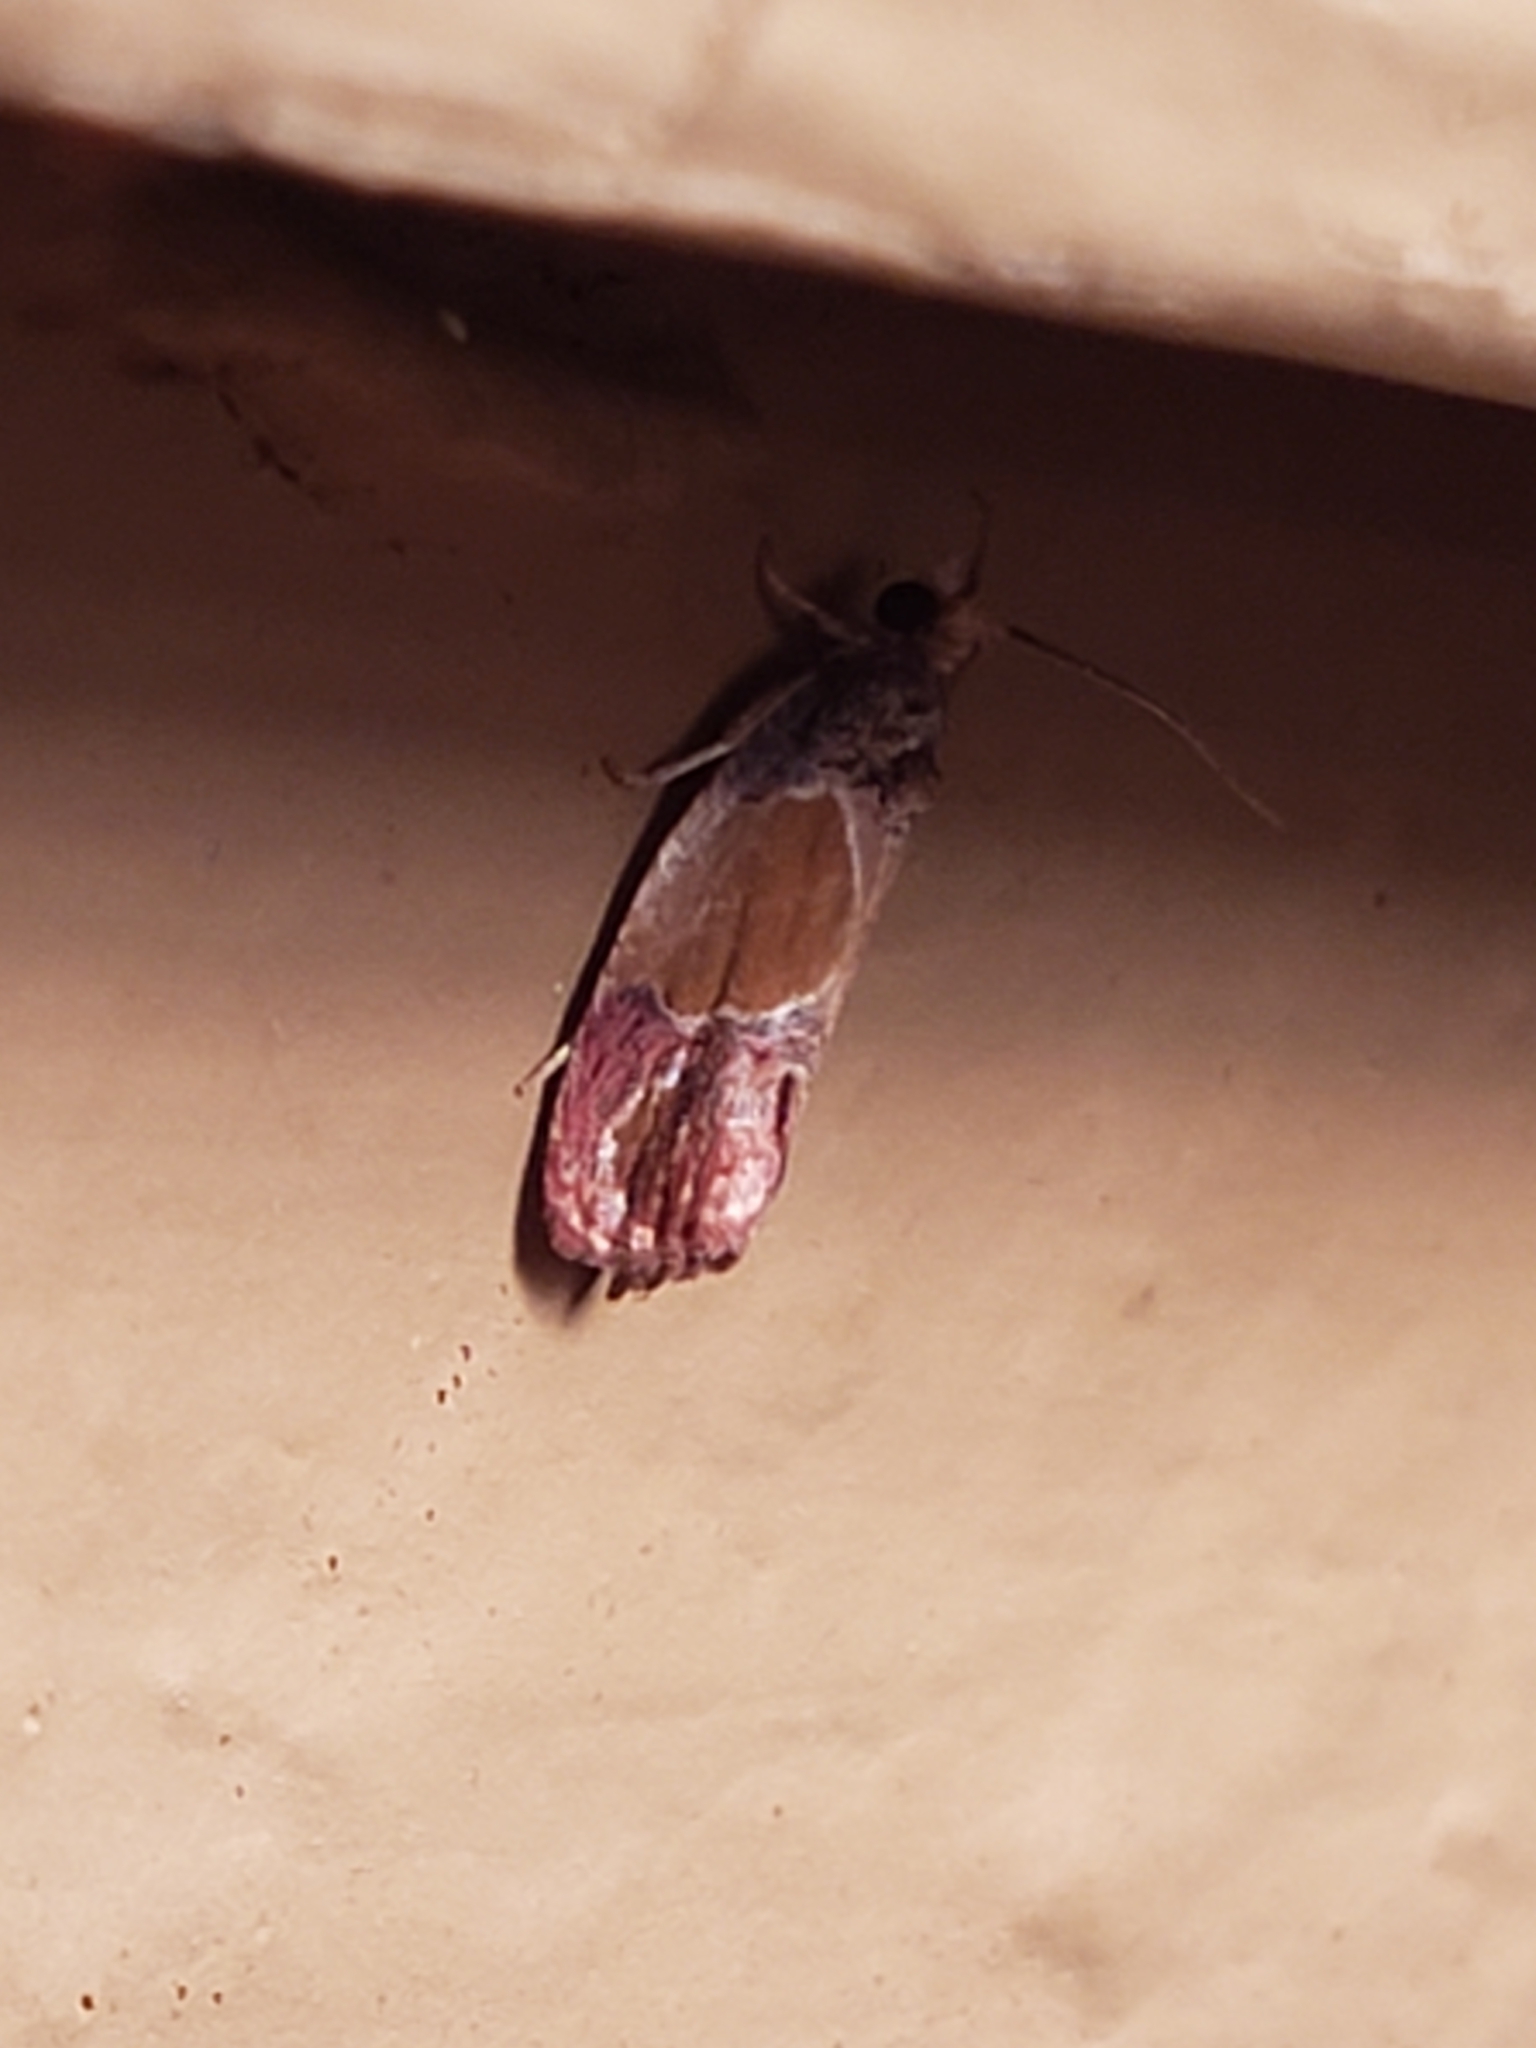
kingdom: Animalia
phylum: Arthropoda
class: Insecta
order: Lepidoptera
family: Tortricidae
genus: Eumarozia
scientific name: Eumarozia malachitana
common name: Sculptured moth
